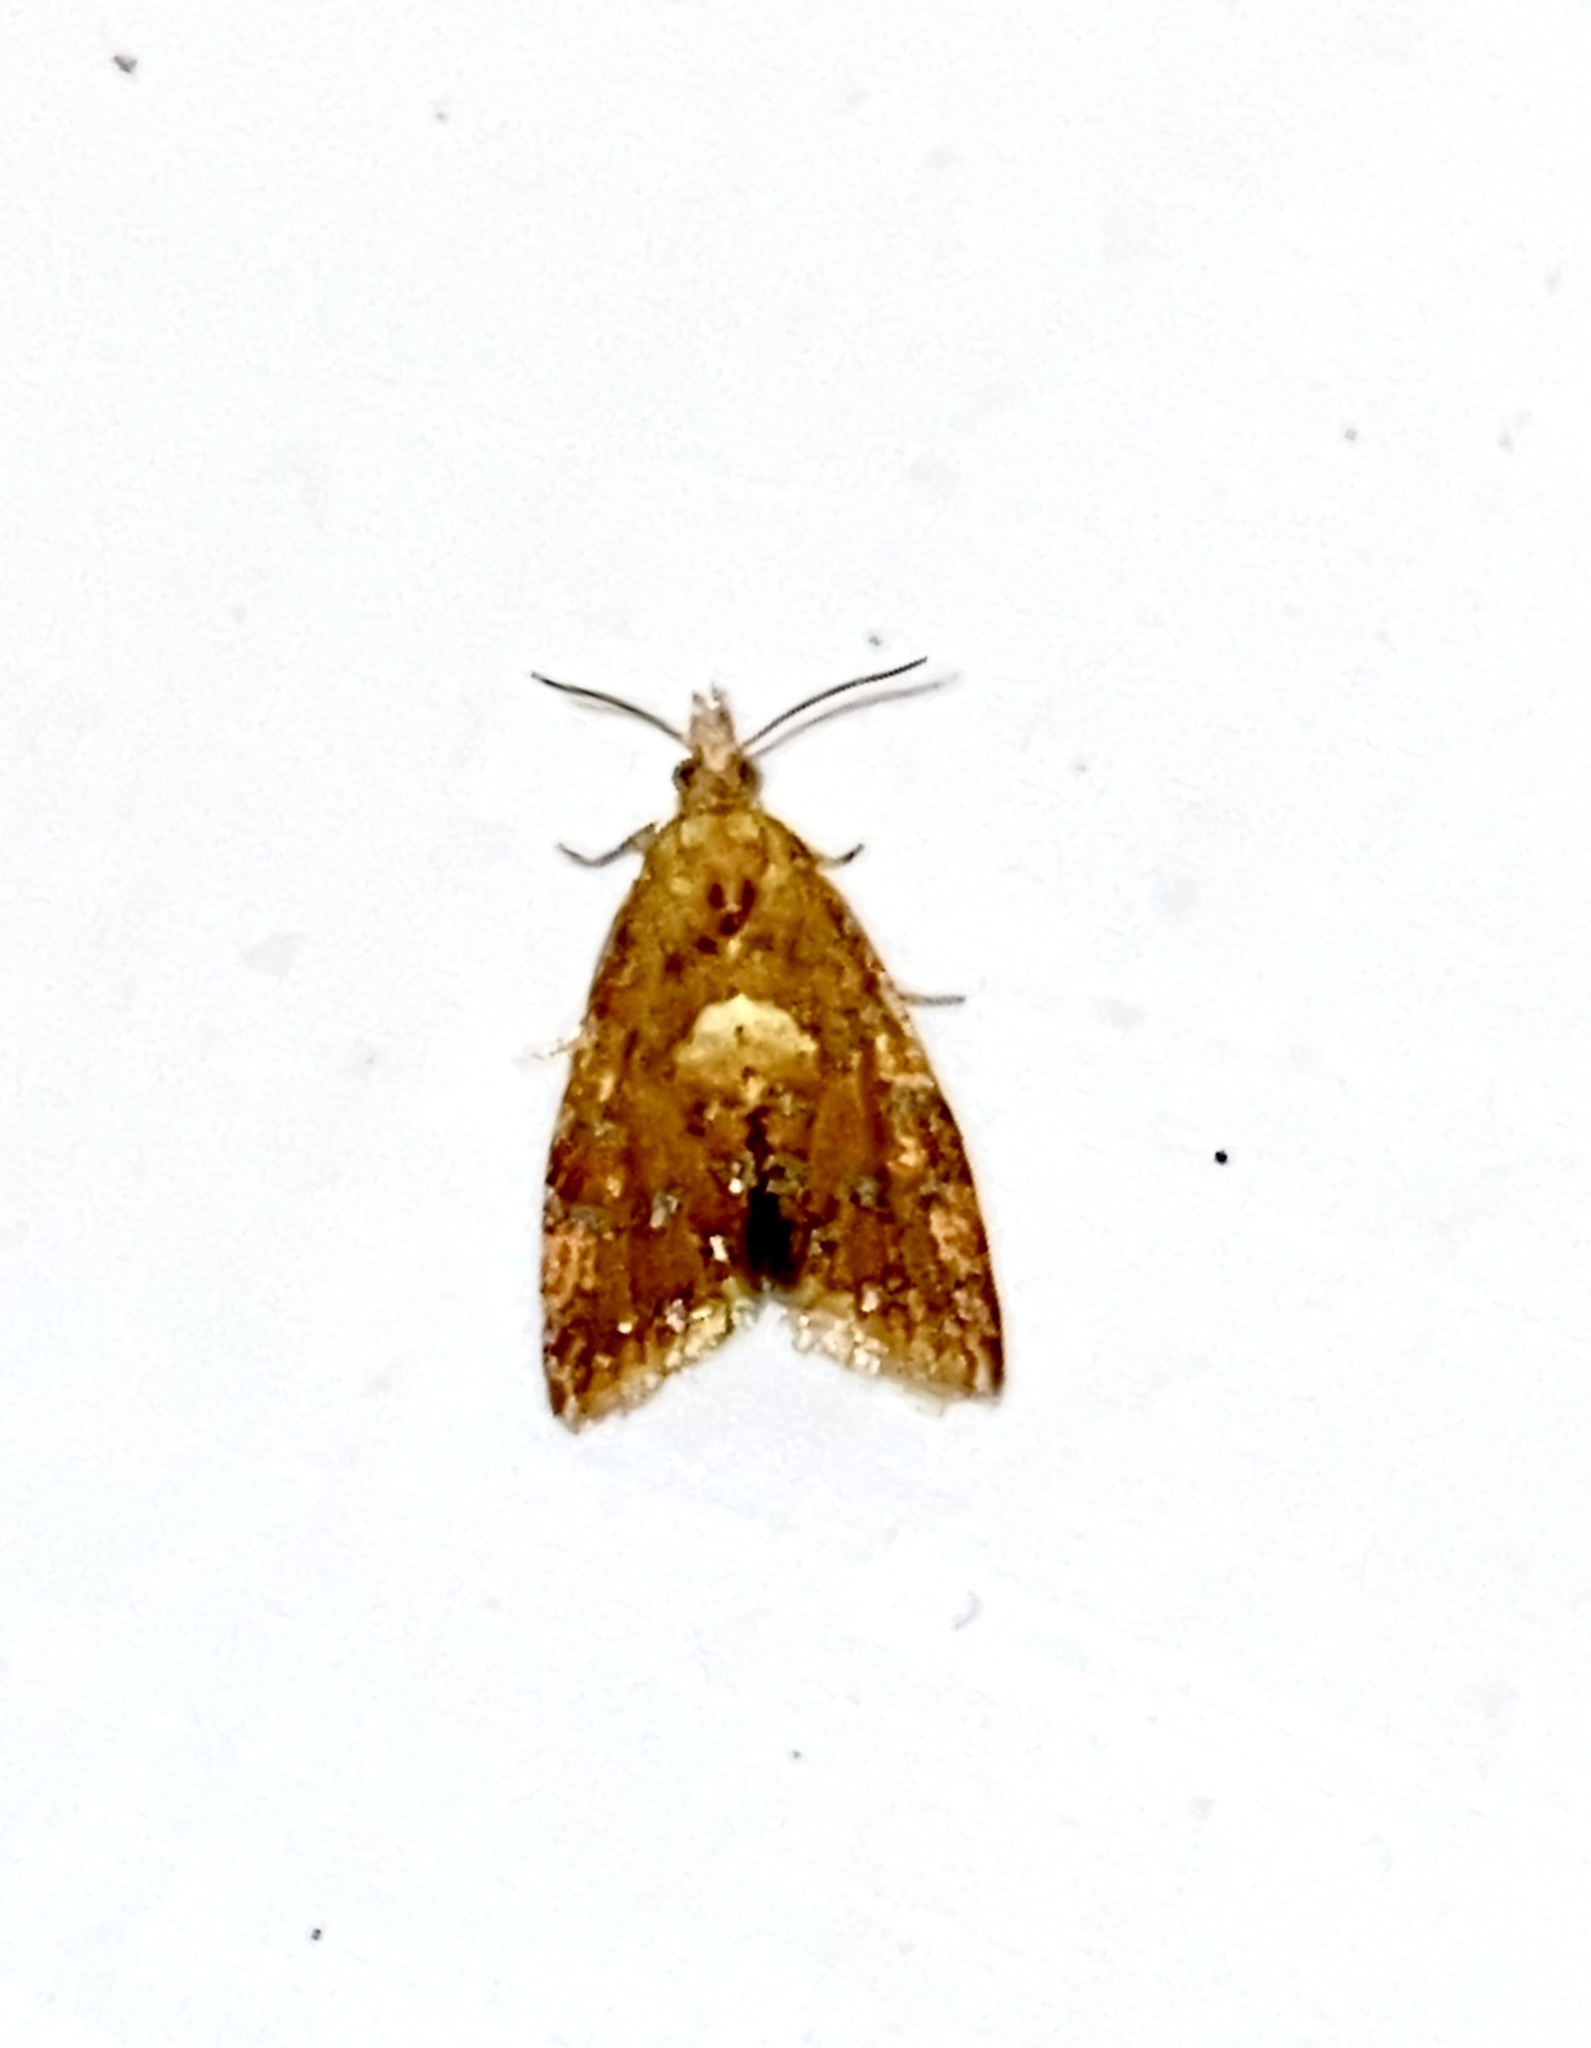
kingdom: Animalia
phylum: Arthropoda
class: Insecta
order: Lepidoptera
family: Tortricidae
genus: Pseudargyrotoza
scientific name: Pseudargyrotoza conwagana
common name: Yellow-spot twist
